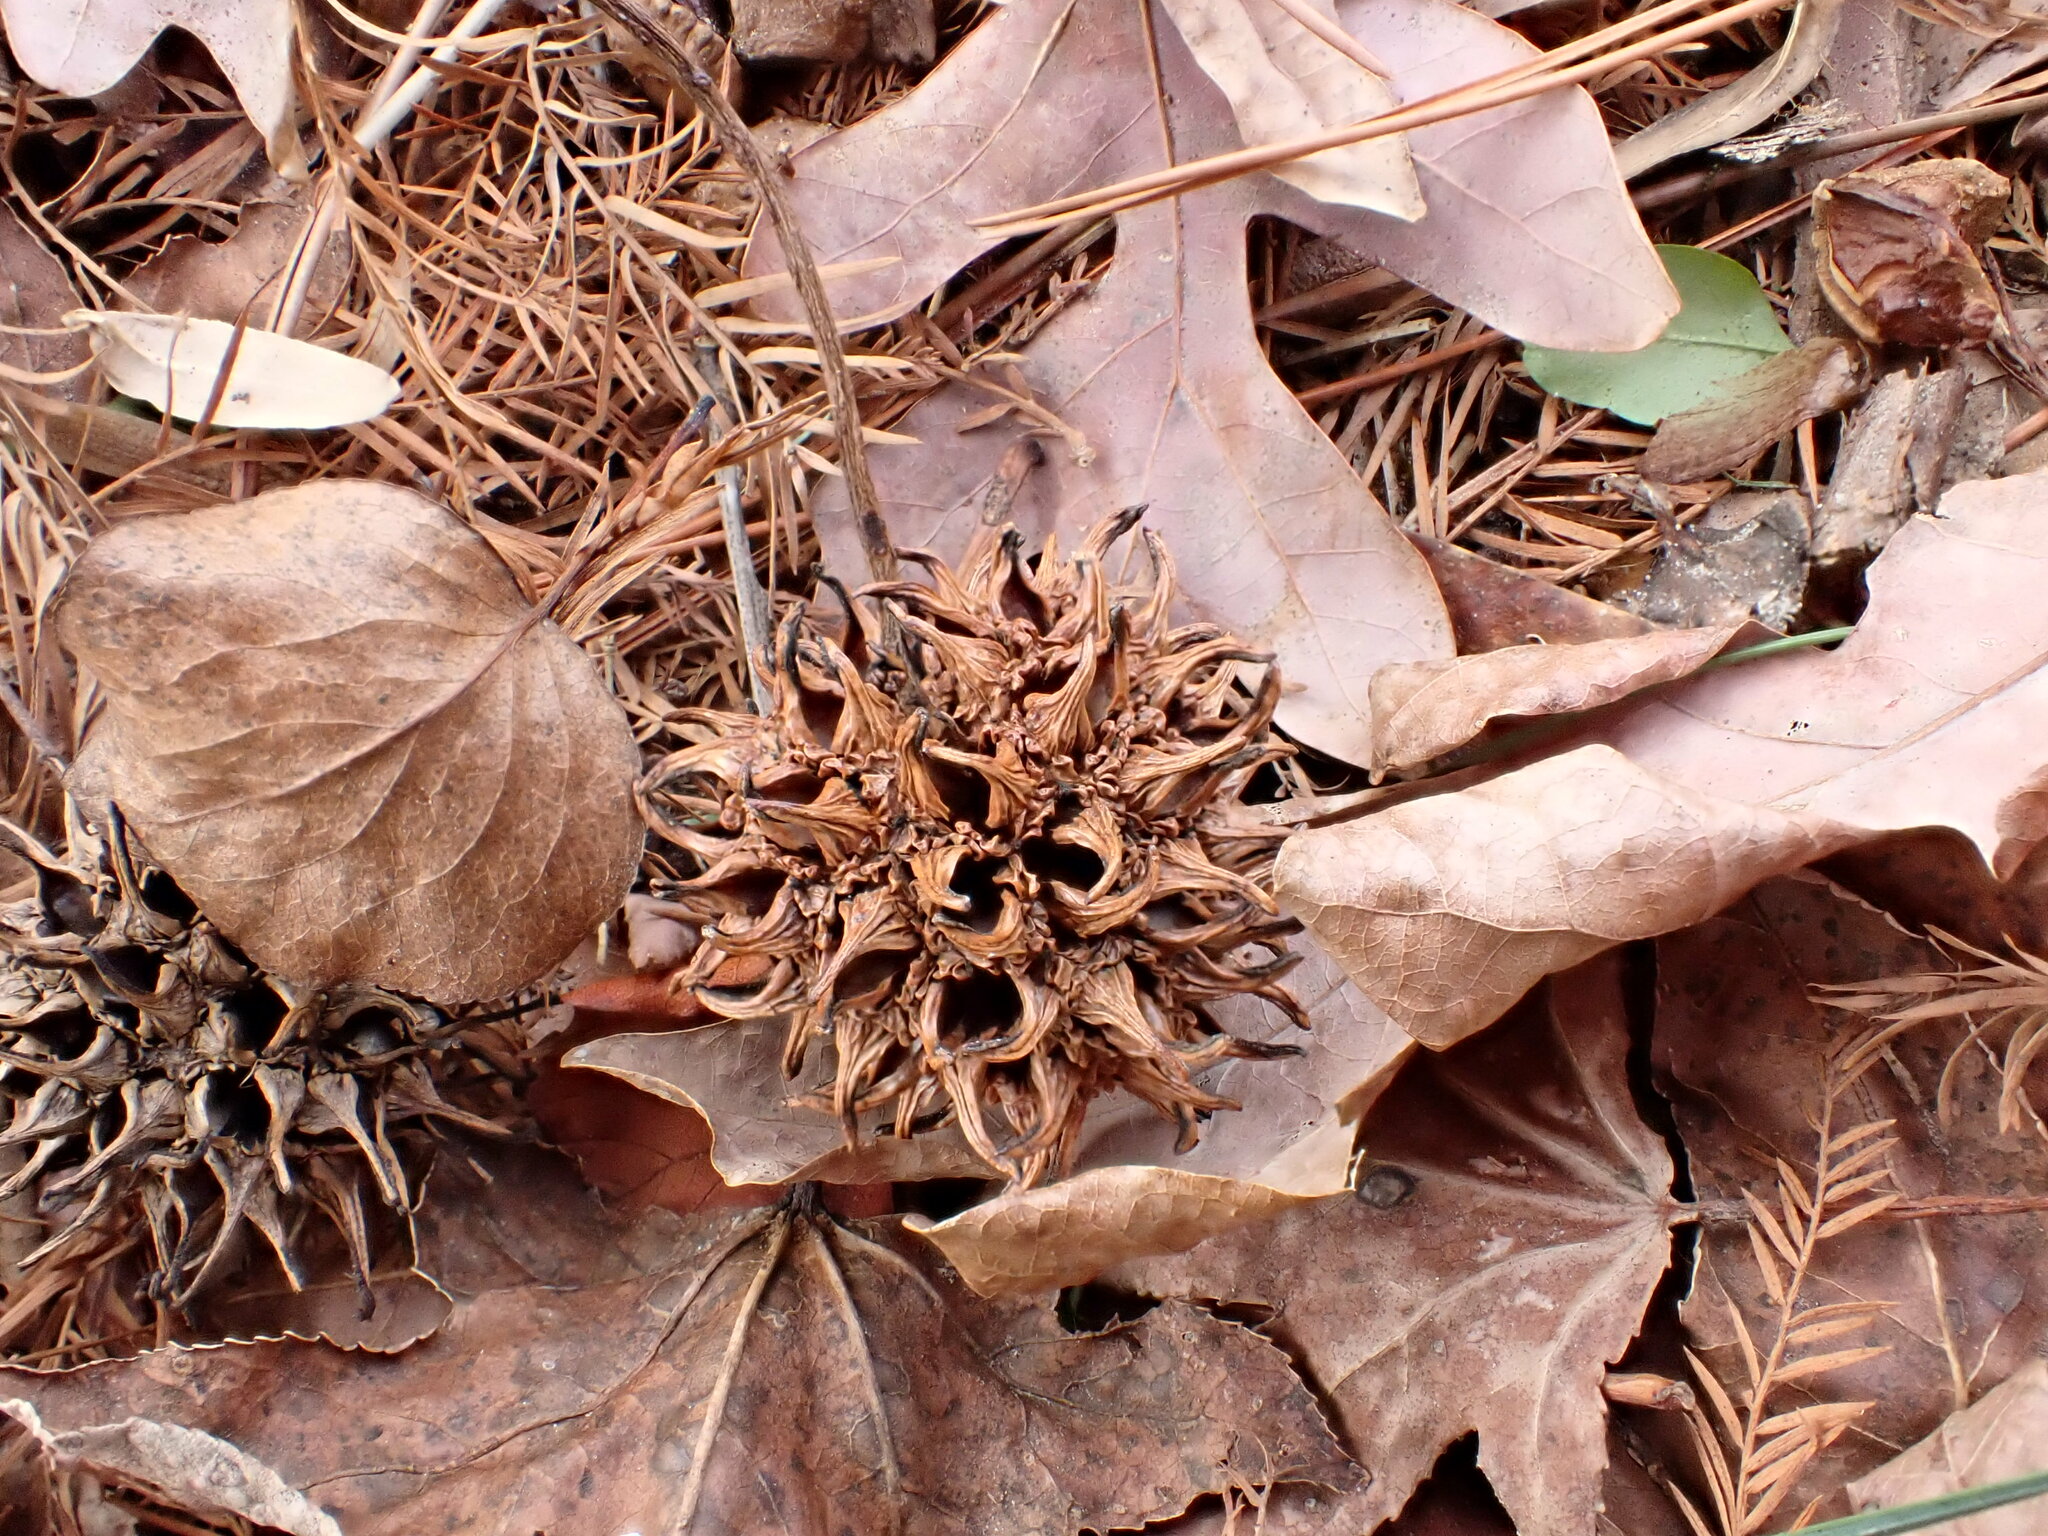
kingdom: Plantae
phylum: Tracheophyta
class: Magnoliopsida
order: Saxifragales
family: Altingiaceae
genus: Liquidambar
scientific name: Liquidambar styraciflua
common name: Sweet gum
